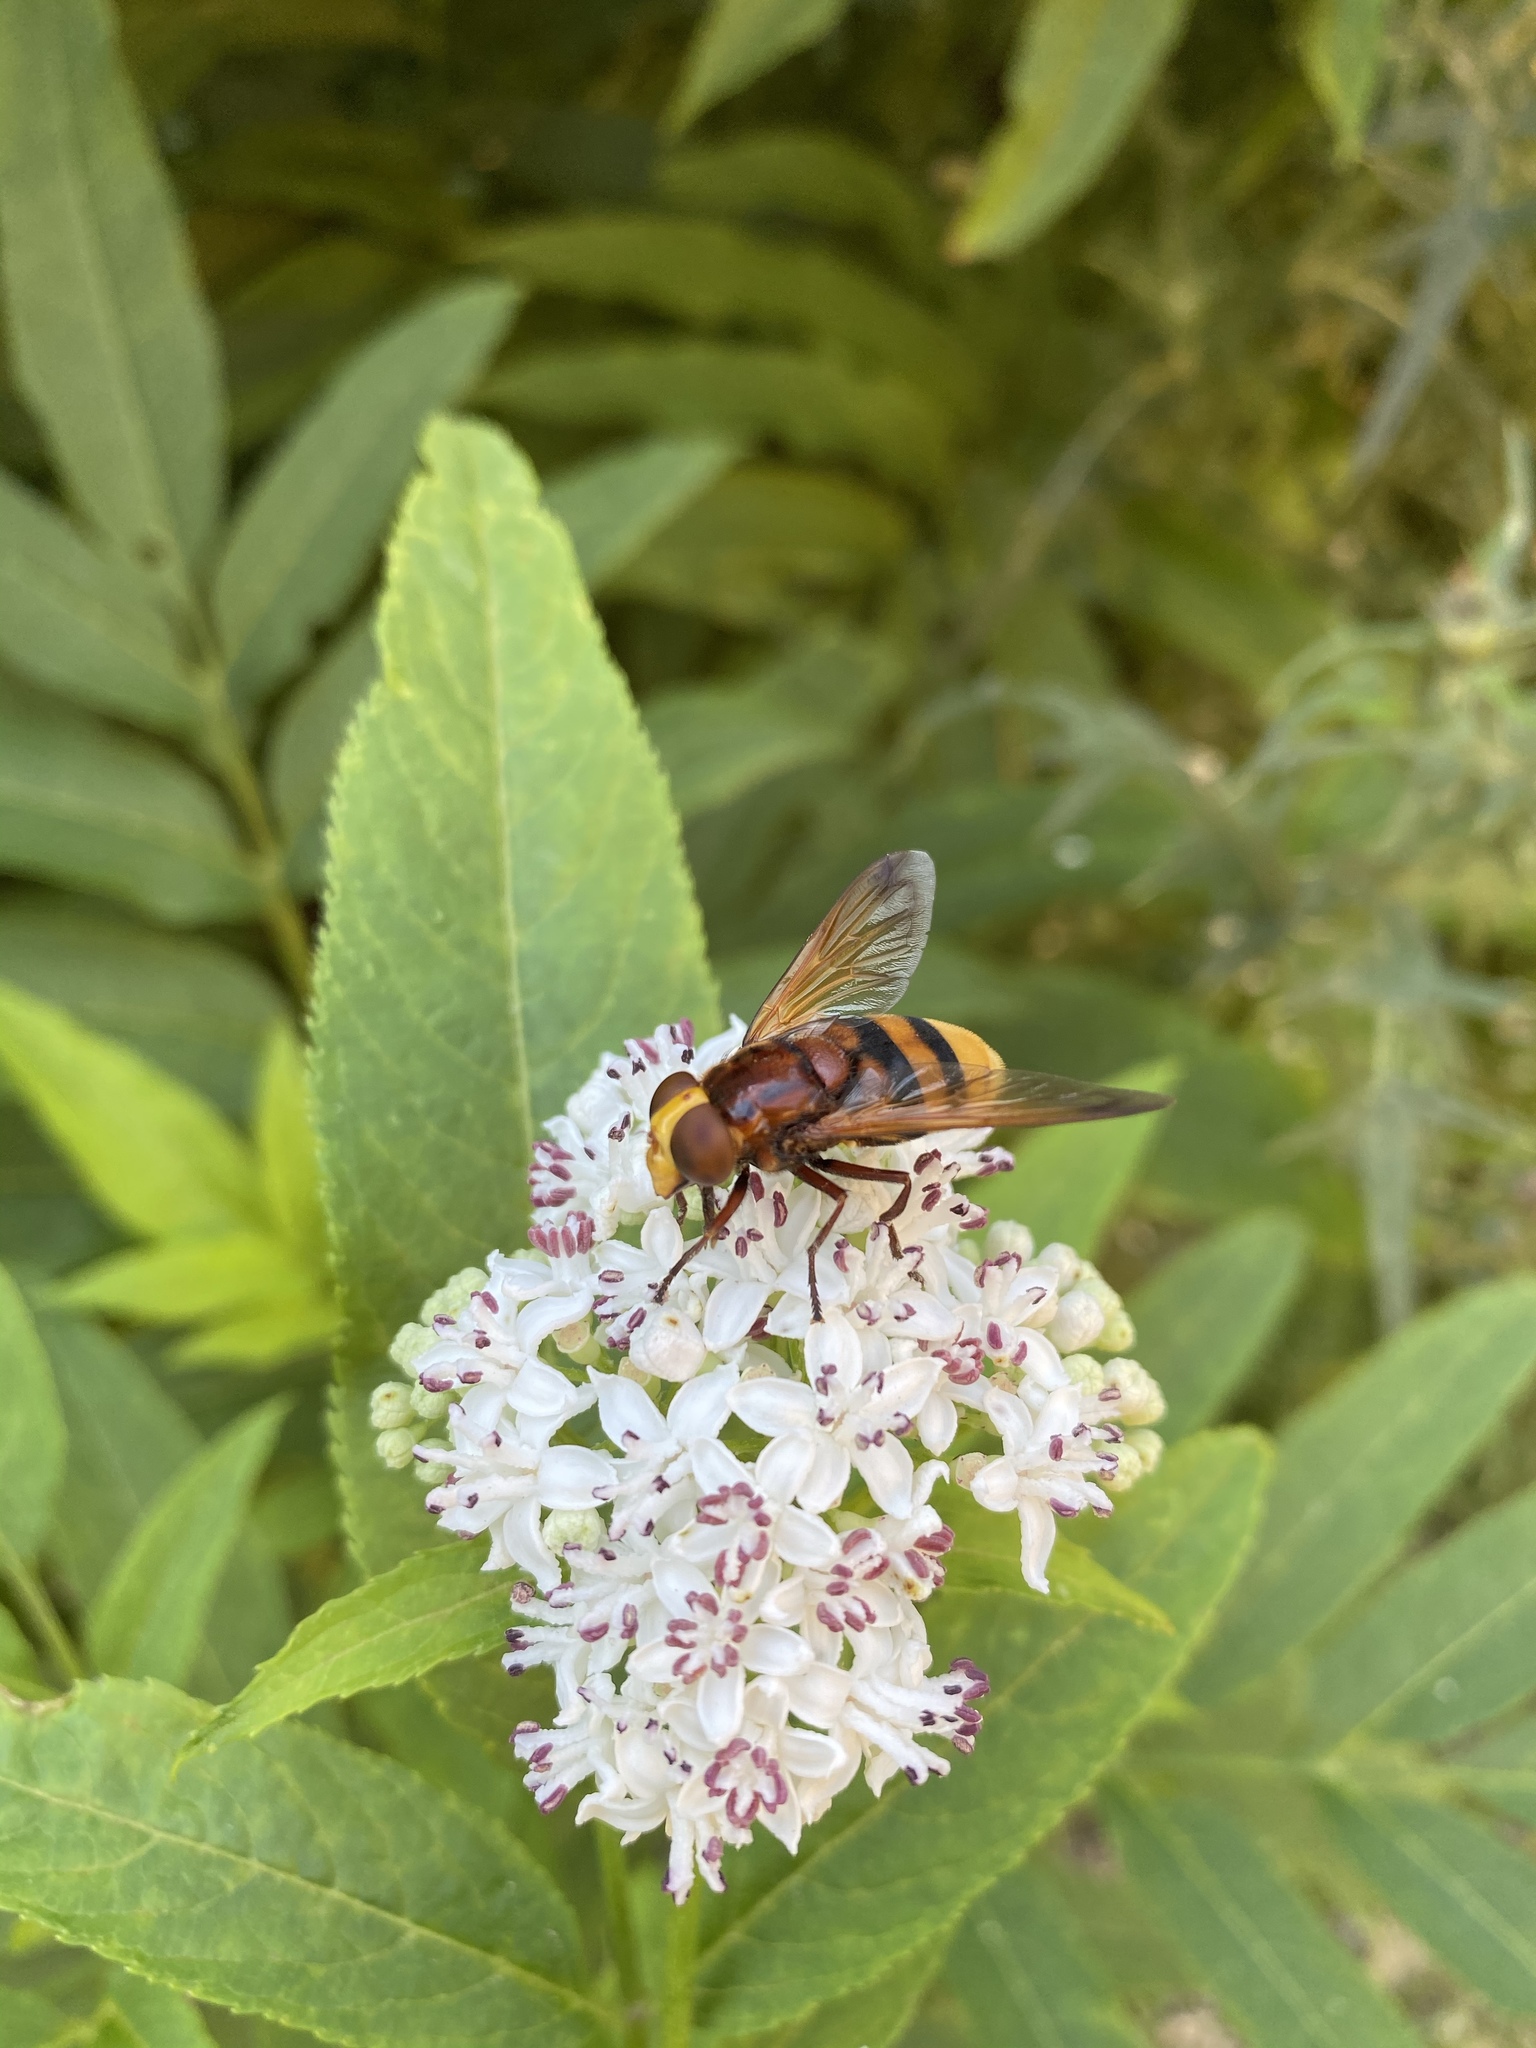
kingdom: Animalia
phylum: Arthropoda
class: Insecta
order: Diptera
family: Syrphidae
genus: Volucella
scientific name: Volucella zonaria
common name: Hornet hoverfly
